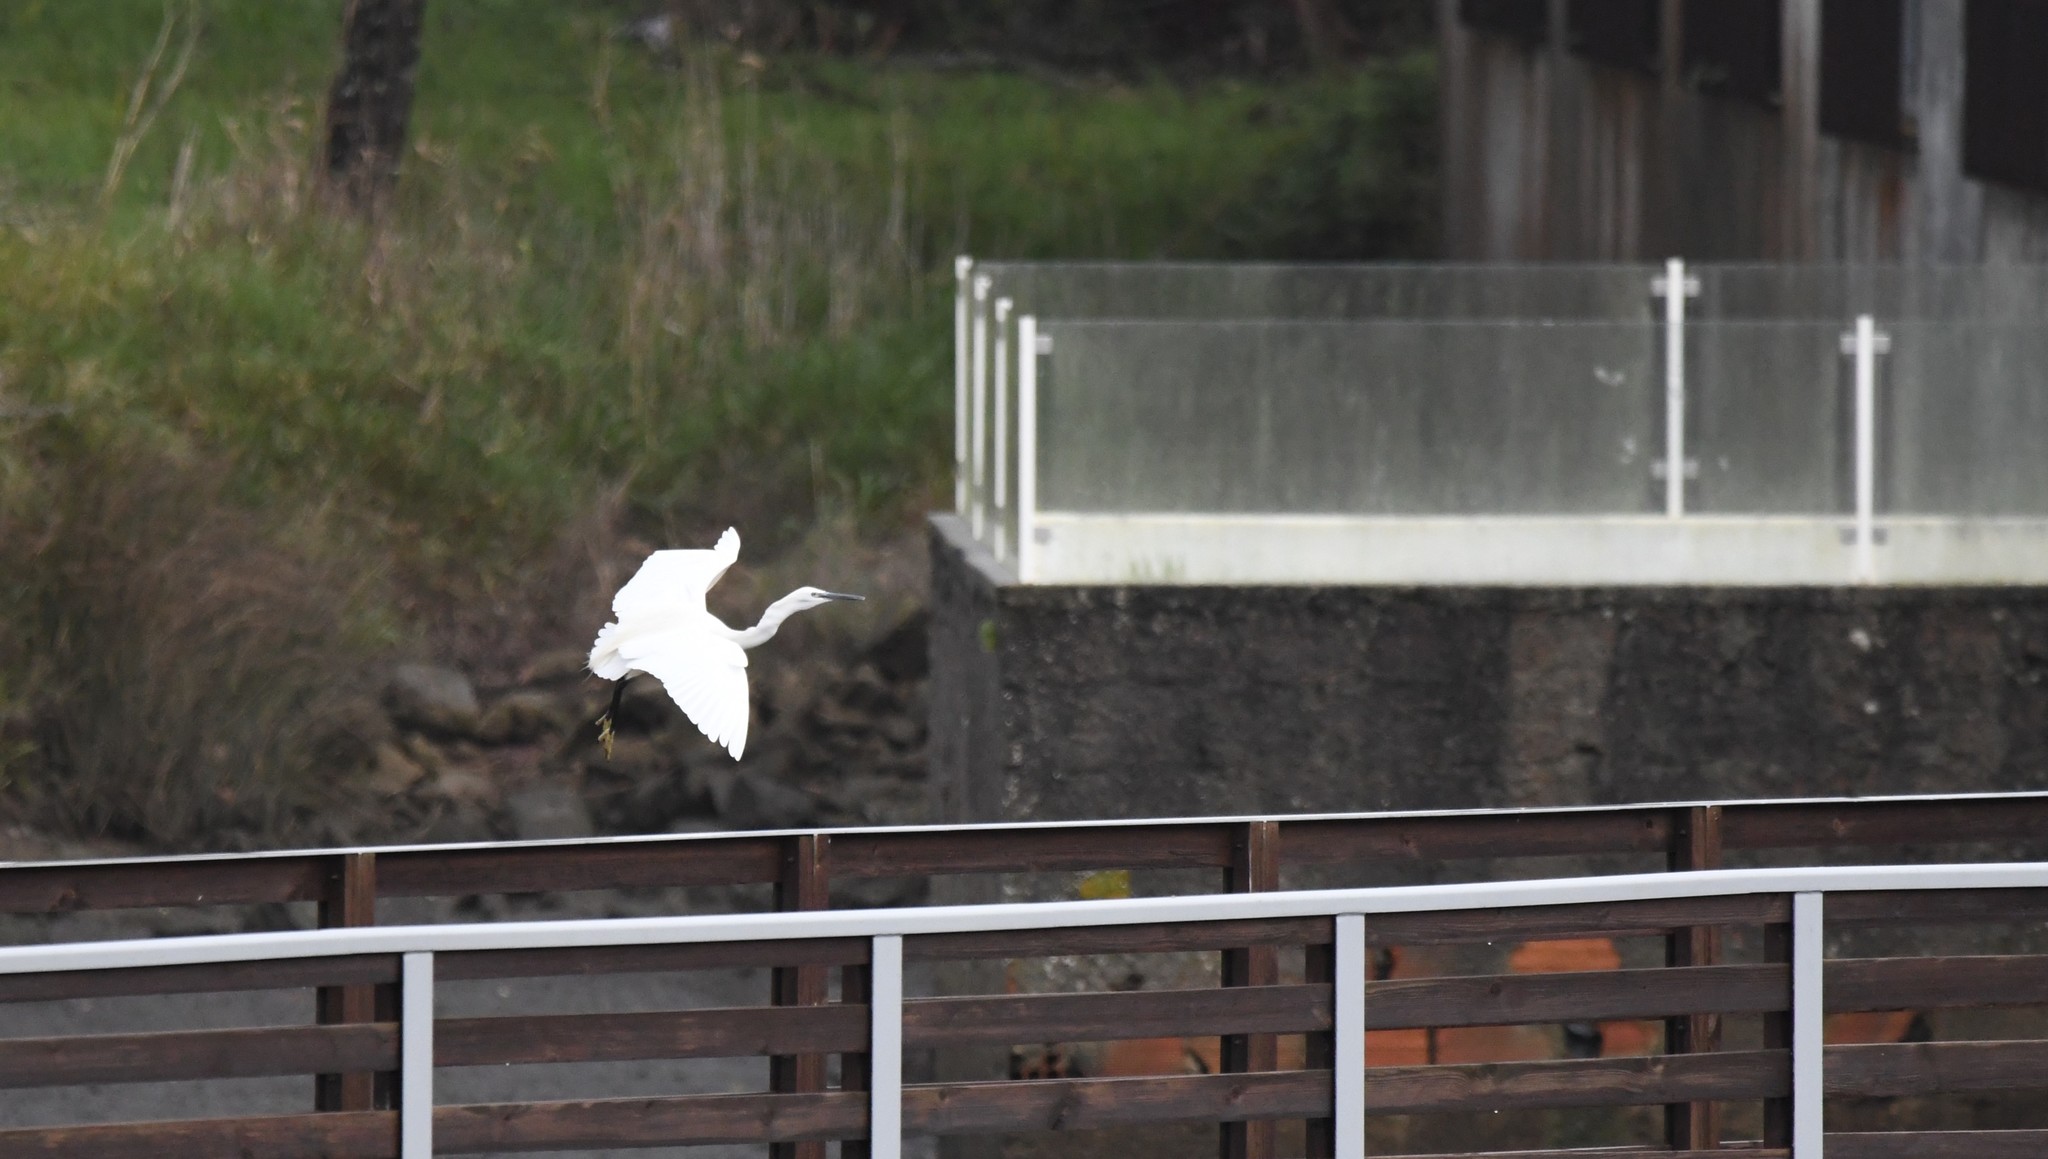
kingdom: Animalia
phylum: Chordata
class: Aves
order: Pelecaniformes
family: Ardeidae
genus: Egretta
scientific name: Egretta garzetta
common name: Little egret
